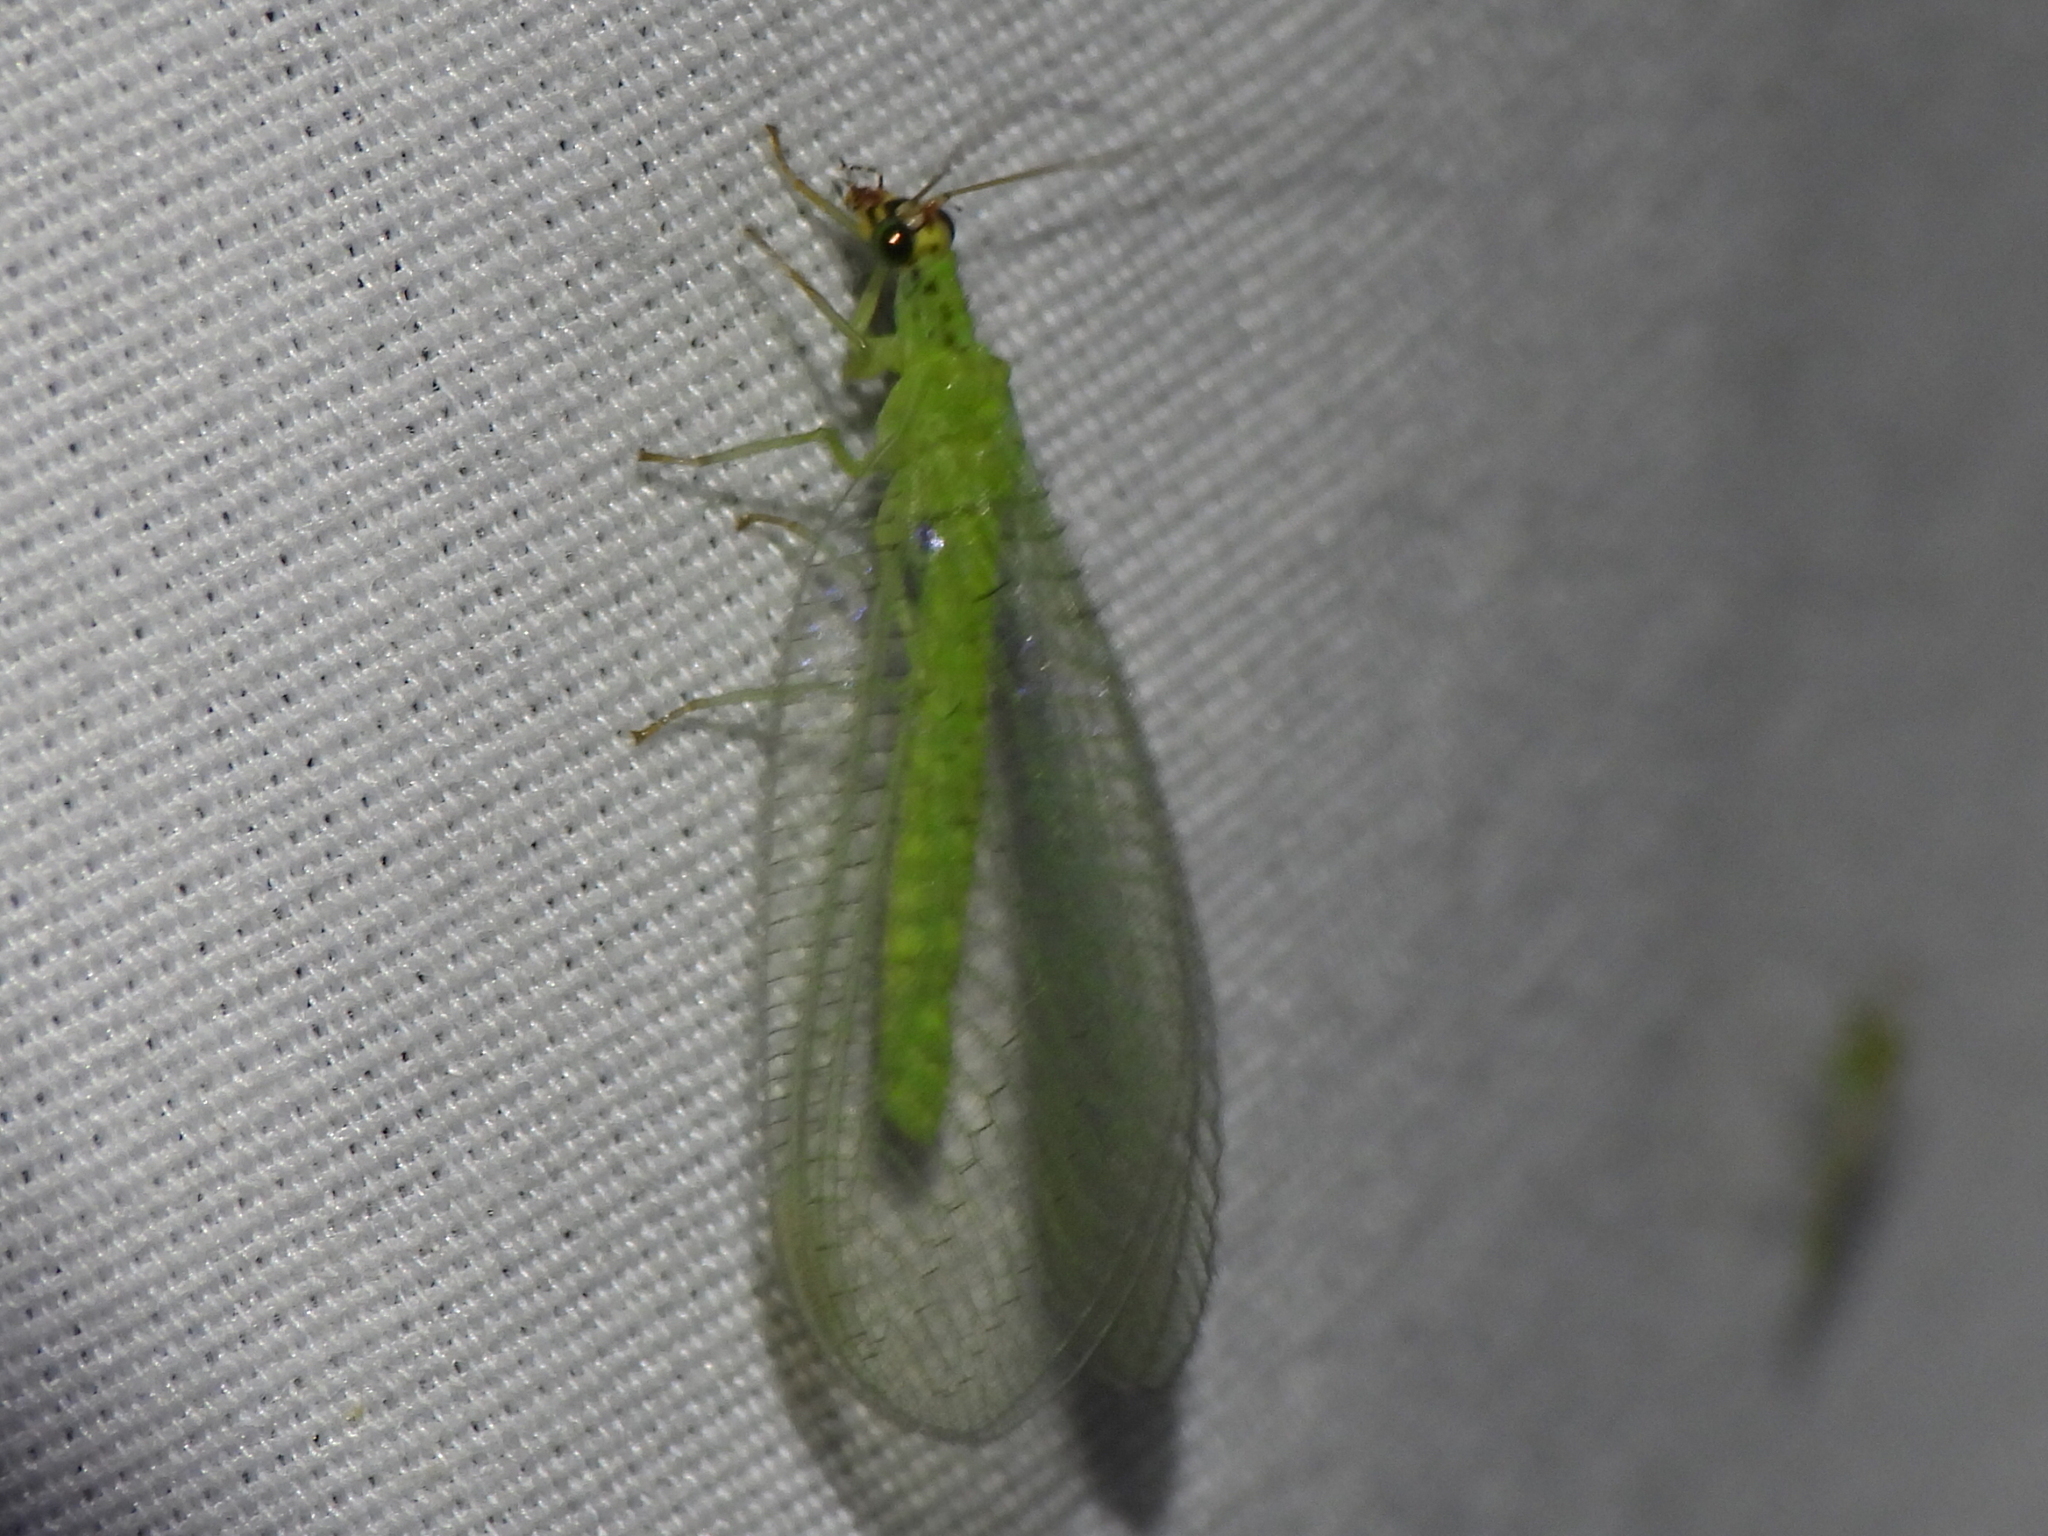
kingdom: Animalia
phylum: Arthropoda
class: Insecta
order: Neuroptera
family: Chrysopidae
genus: Chrysopa
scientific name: Chrysopa oculata
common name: Golden-eyed lacewing
